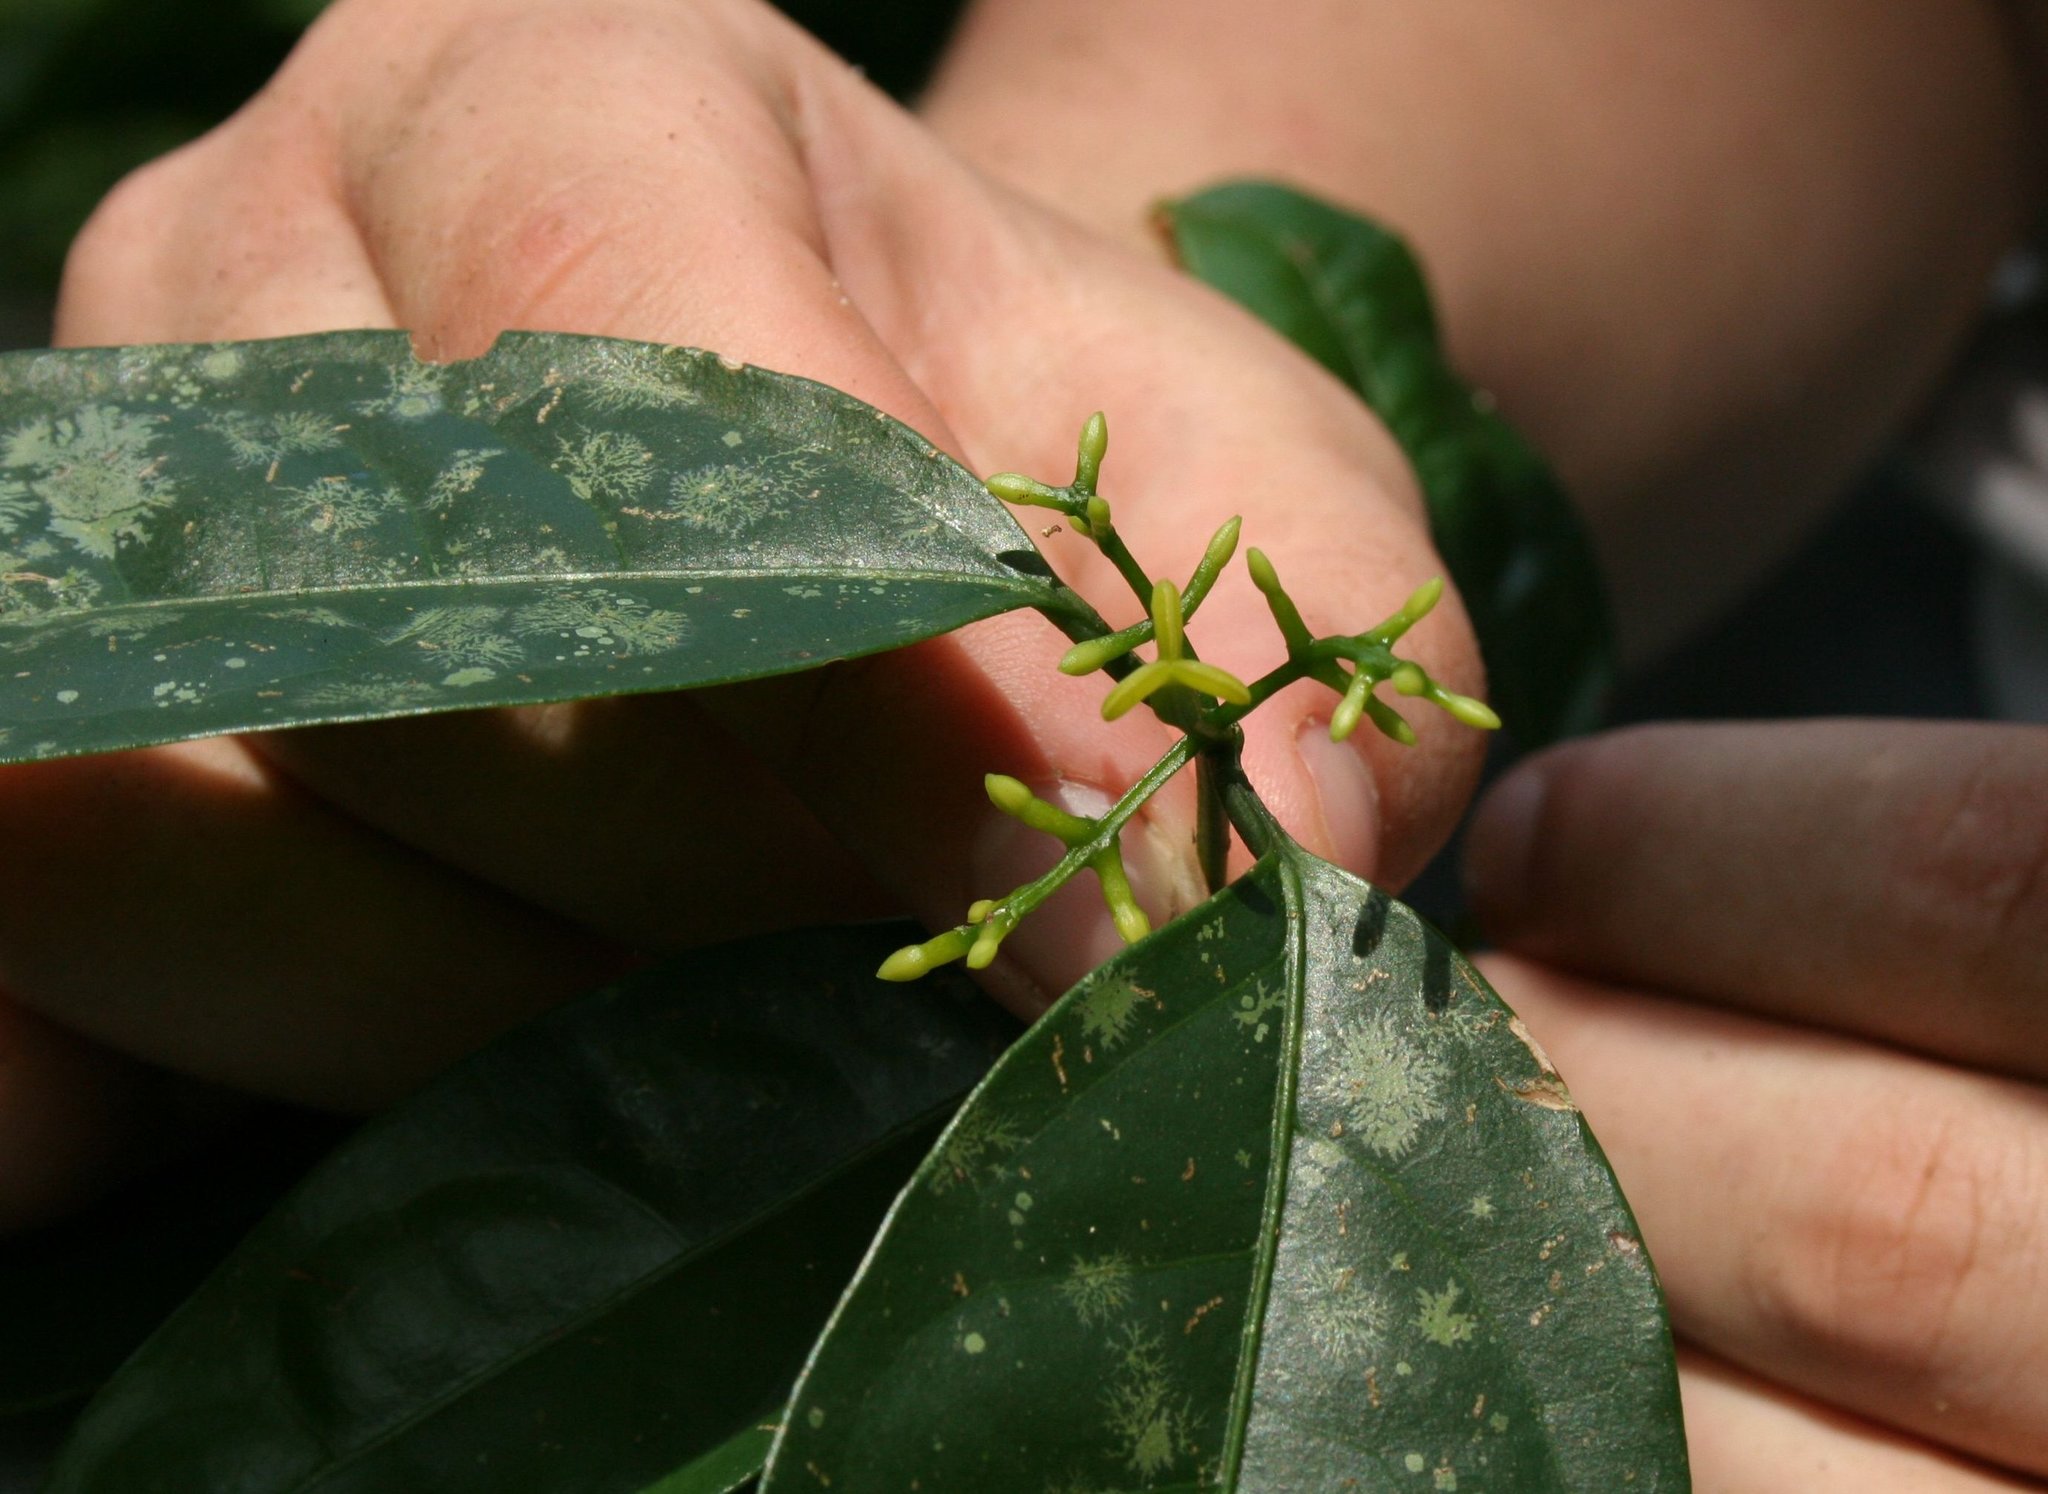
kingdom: Plantae
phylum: Tracheophyta
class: Magnoliopsida
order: Buxales
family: Buxaceae
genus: Haptanthus
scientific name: Haptanthus hazlettii
